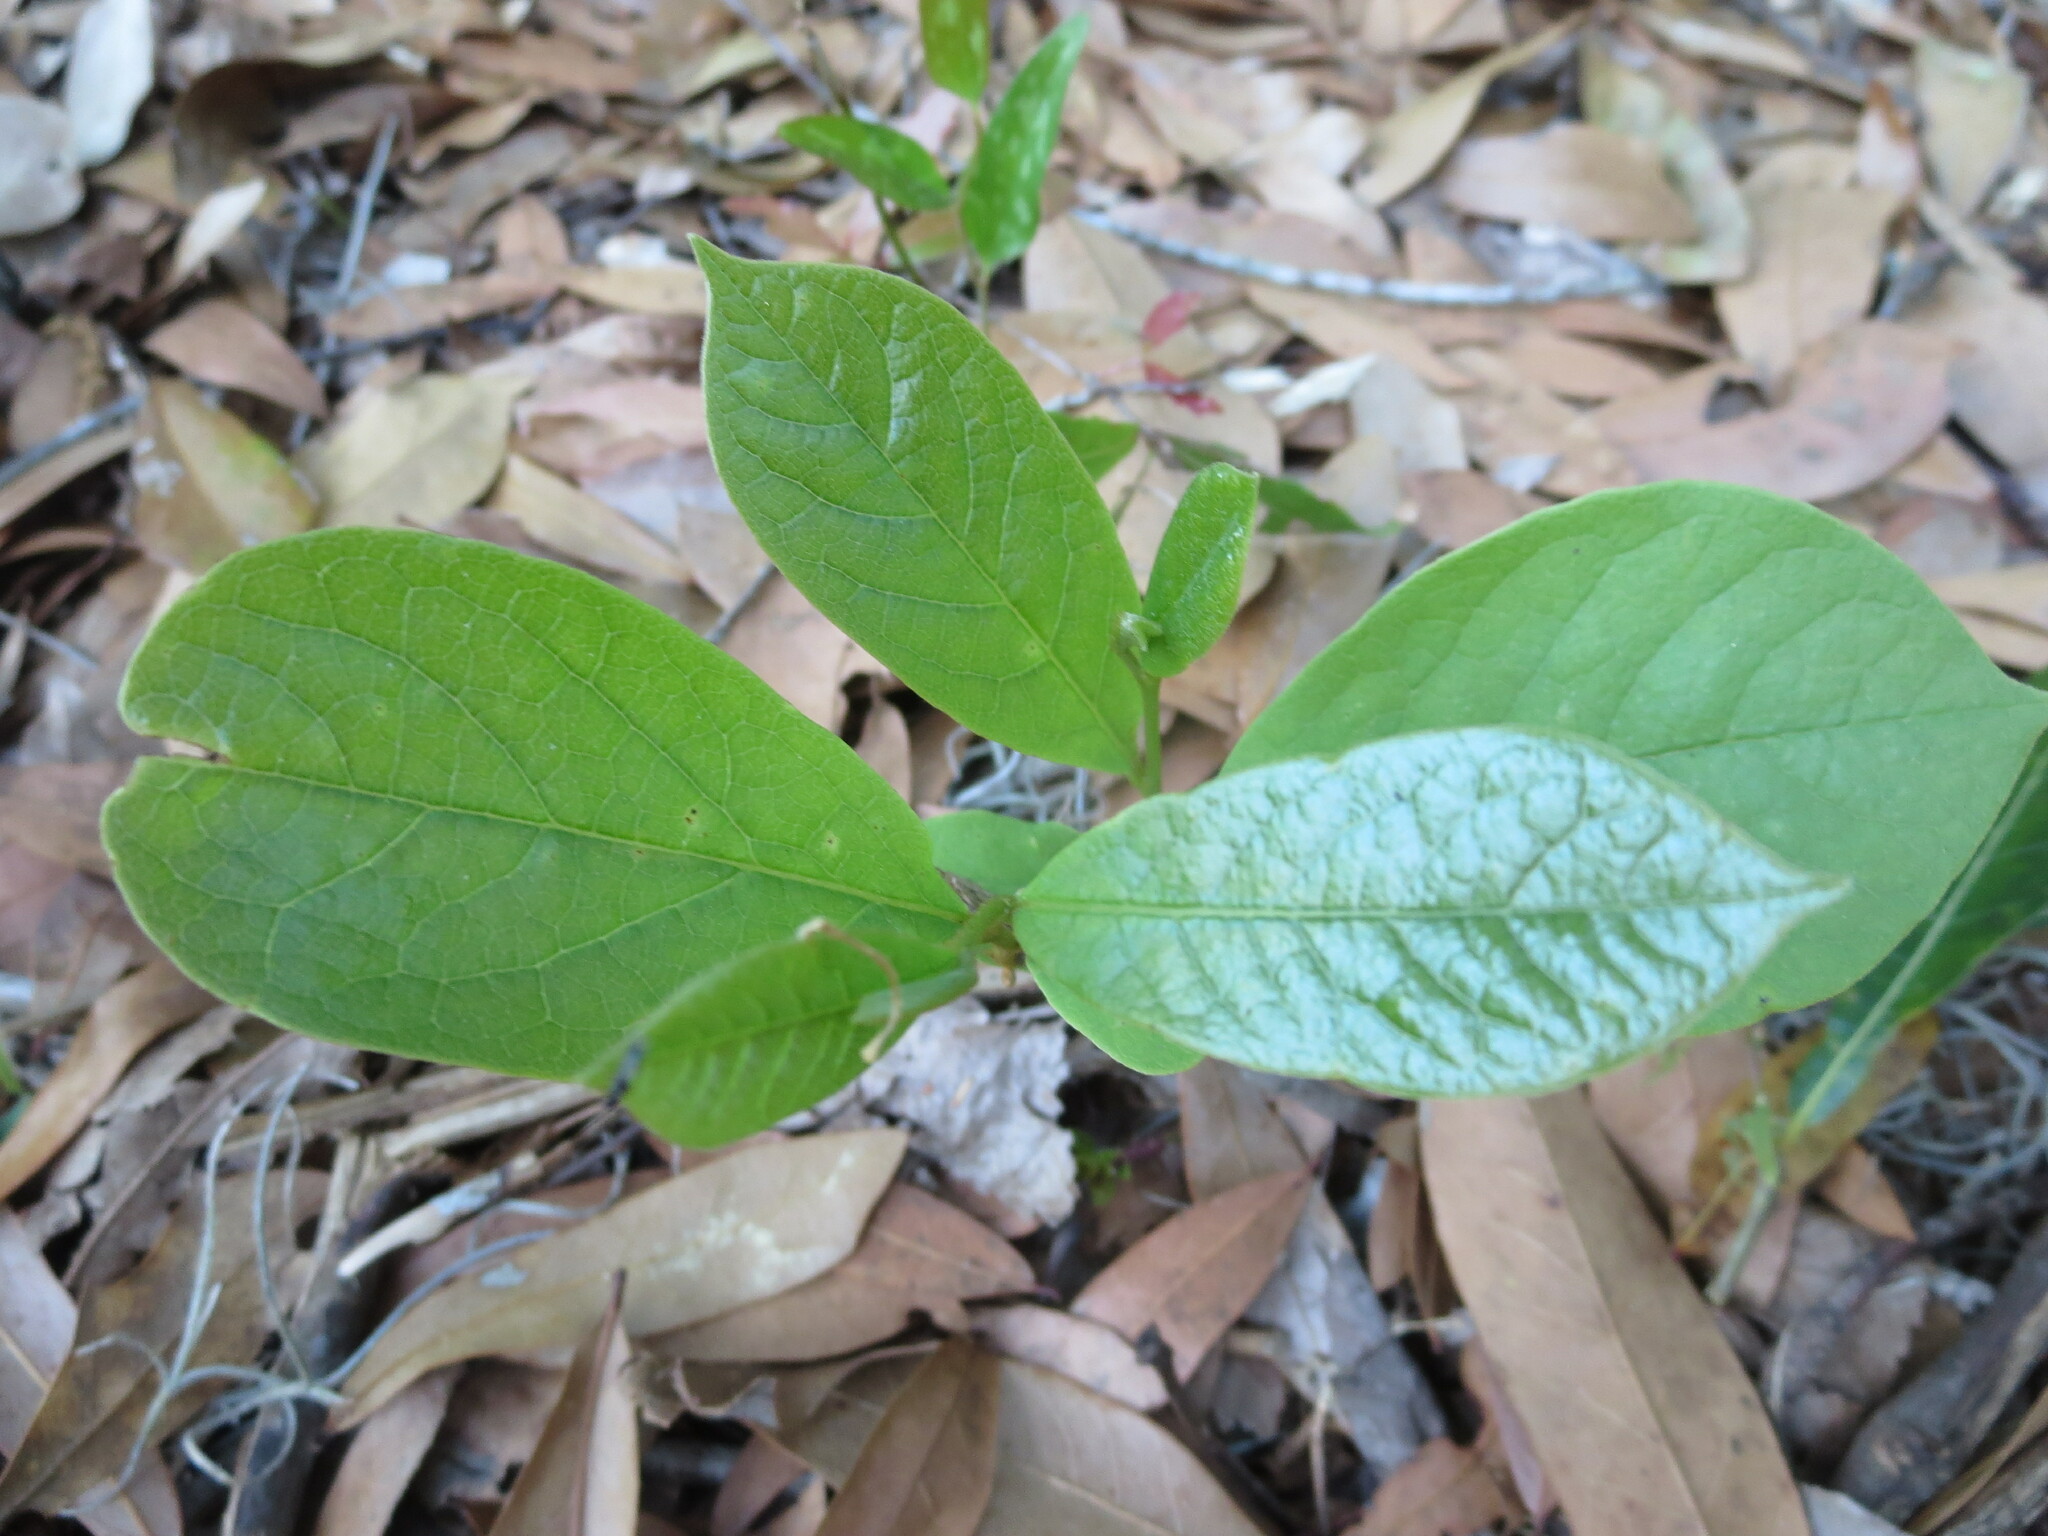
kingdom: Plantae
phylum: Tracheophyta
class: Magnoliopsida
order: Magnoliales
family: Annonaceae
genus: Asimina
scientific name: Asimina parviflora
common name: Dwarf pawpaw
